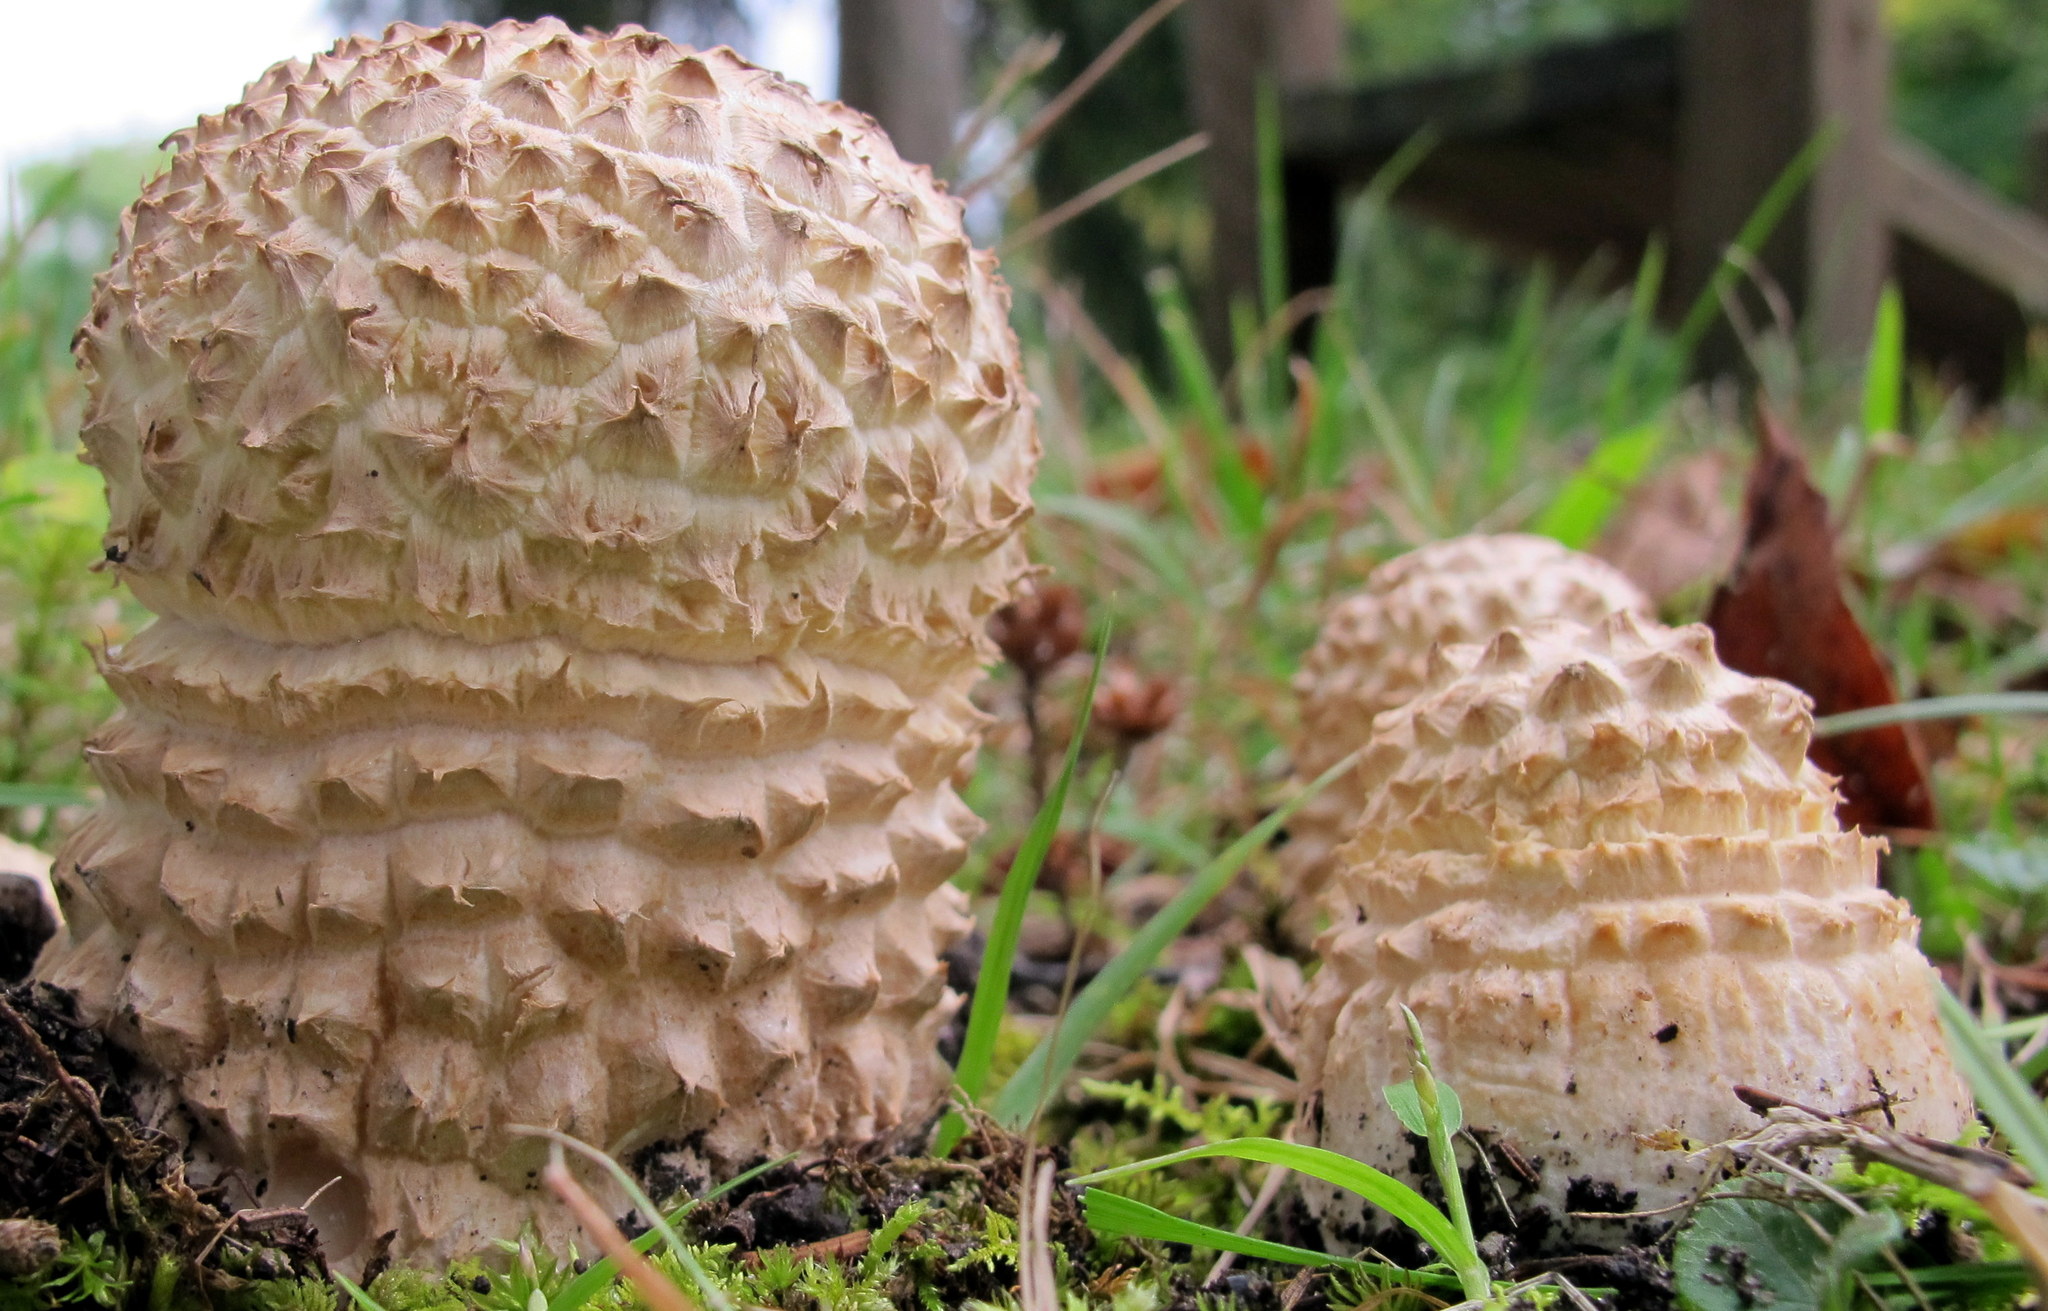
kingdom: Fungi
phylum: Basidiomycota
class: Agaricomycetes
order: Agaricales
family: Amanitaceae
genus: Amanita
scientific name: Amanita muscaria
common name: Fly agaric
